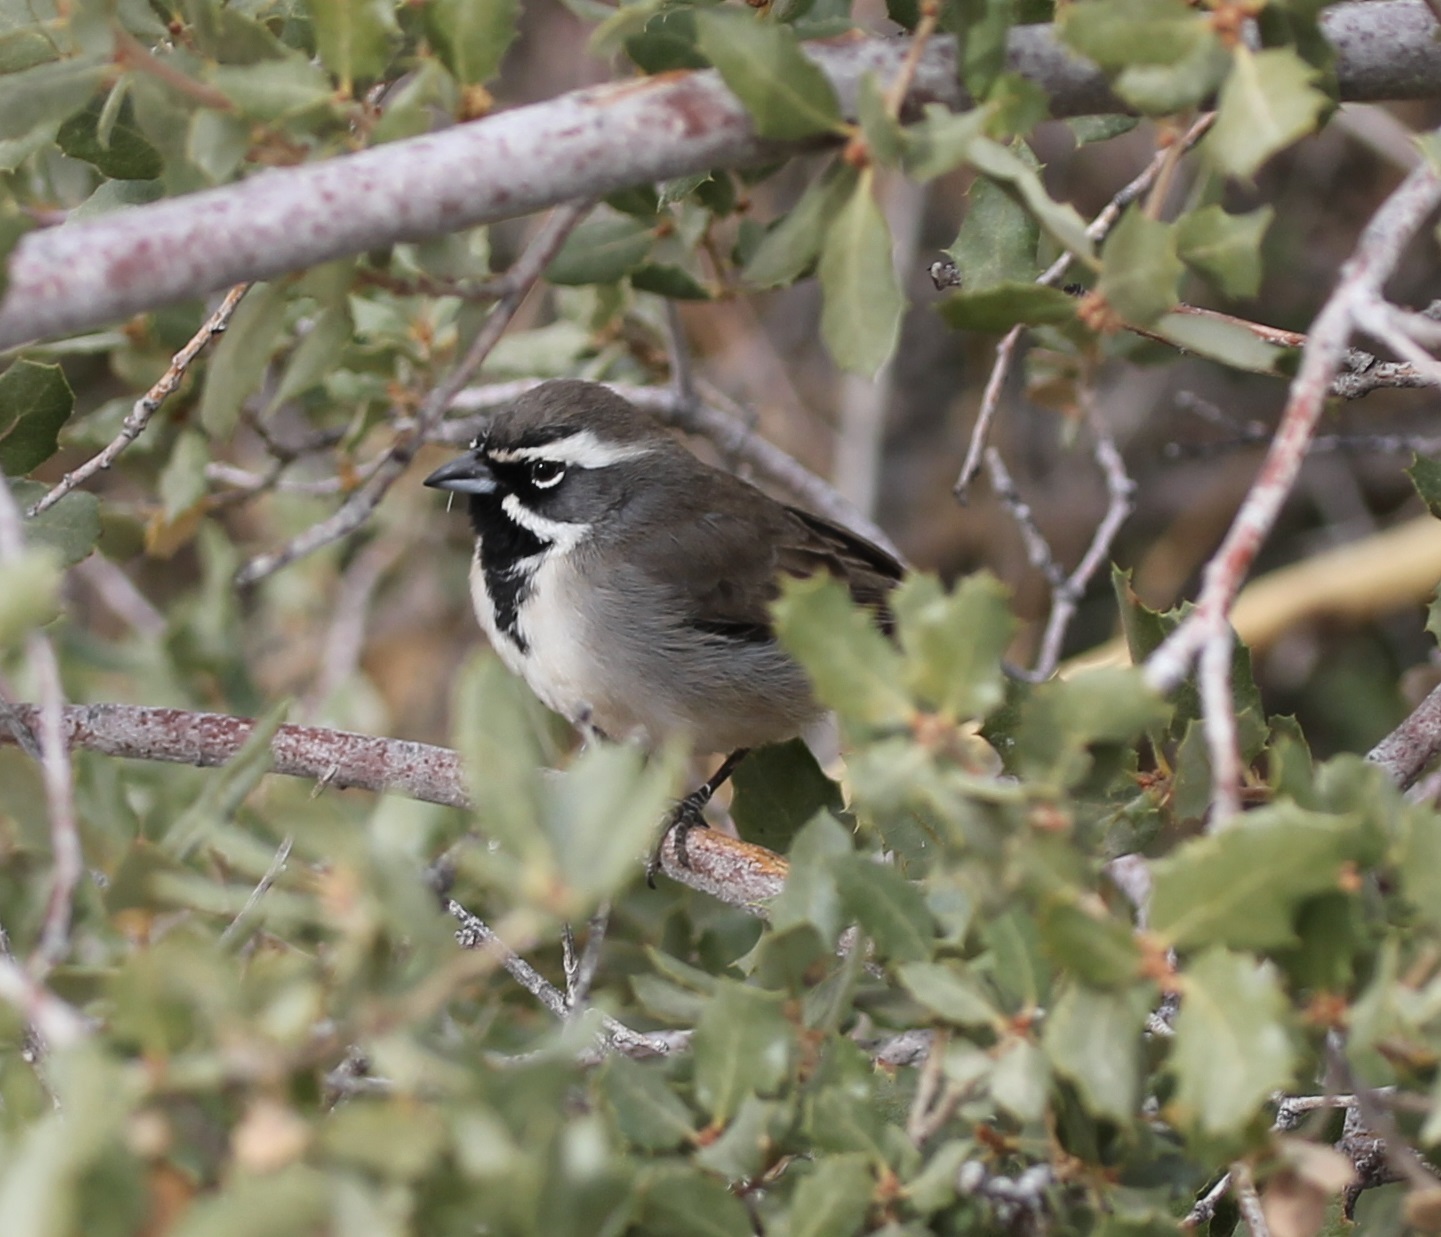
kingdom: Animalia
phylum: Chordata
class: Aves
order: Passeriformes
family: Passerellidae
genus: Amphispiza
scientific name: Amphispiza bilineata
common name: Black-throated sparrow
